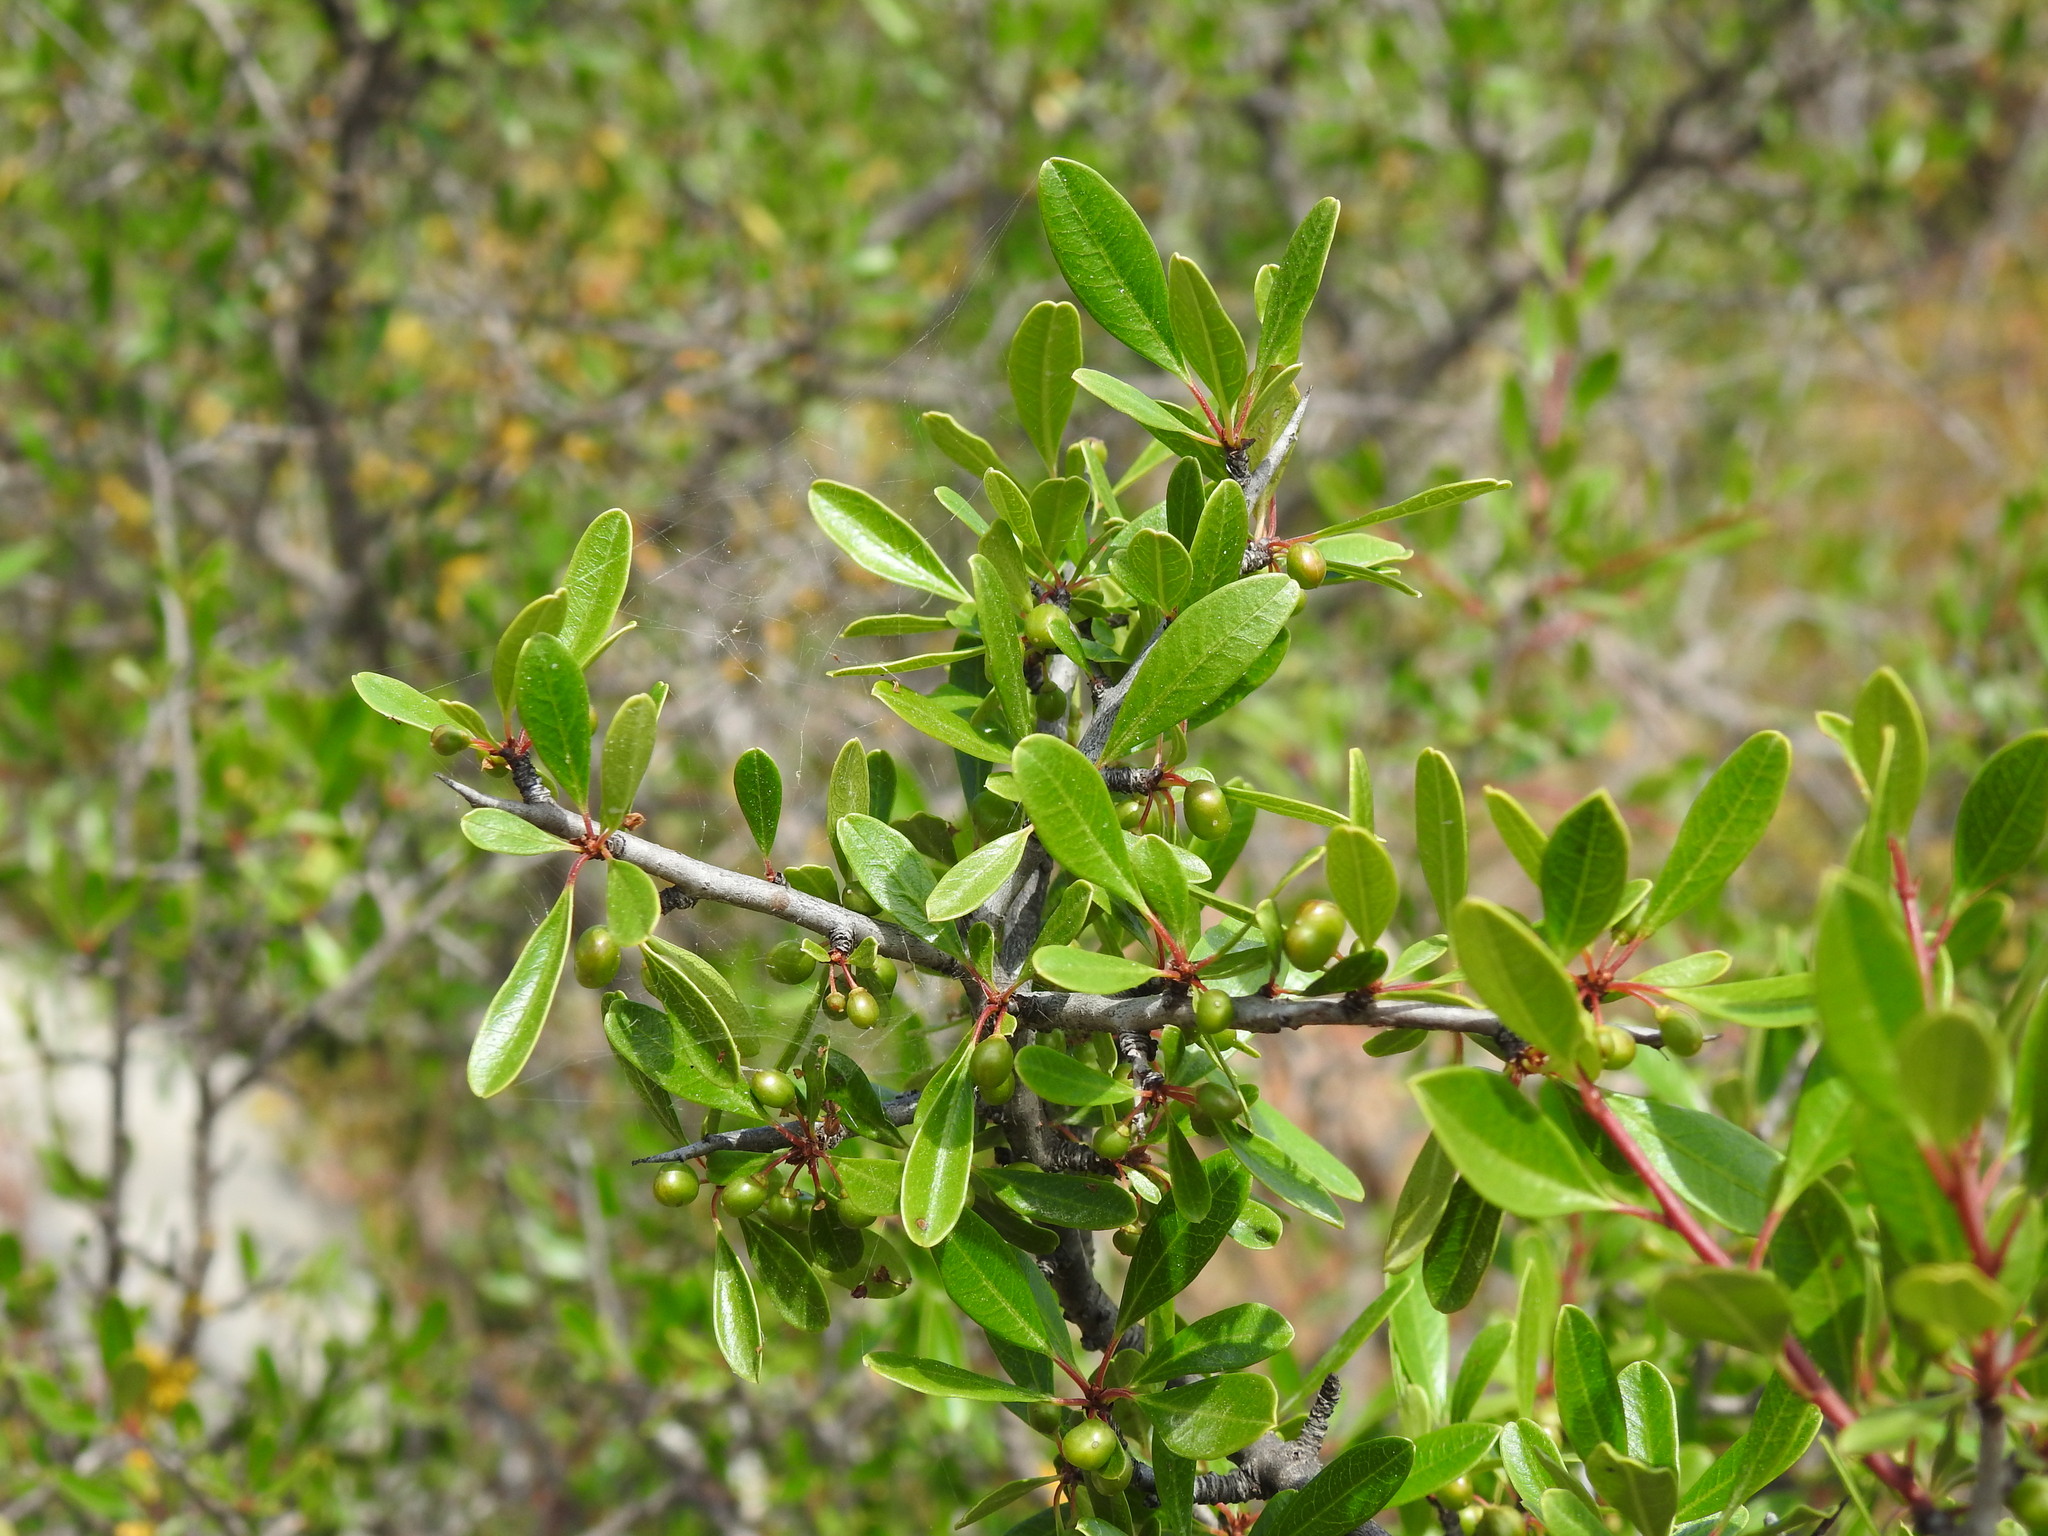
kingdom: Plantae
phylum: Tracheophyta
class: Magnoliopsida
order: Rosales
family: Rhamnaceae
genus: Rhamnus
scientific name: Rhamnus oleoides
